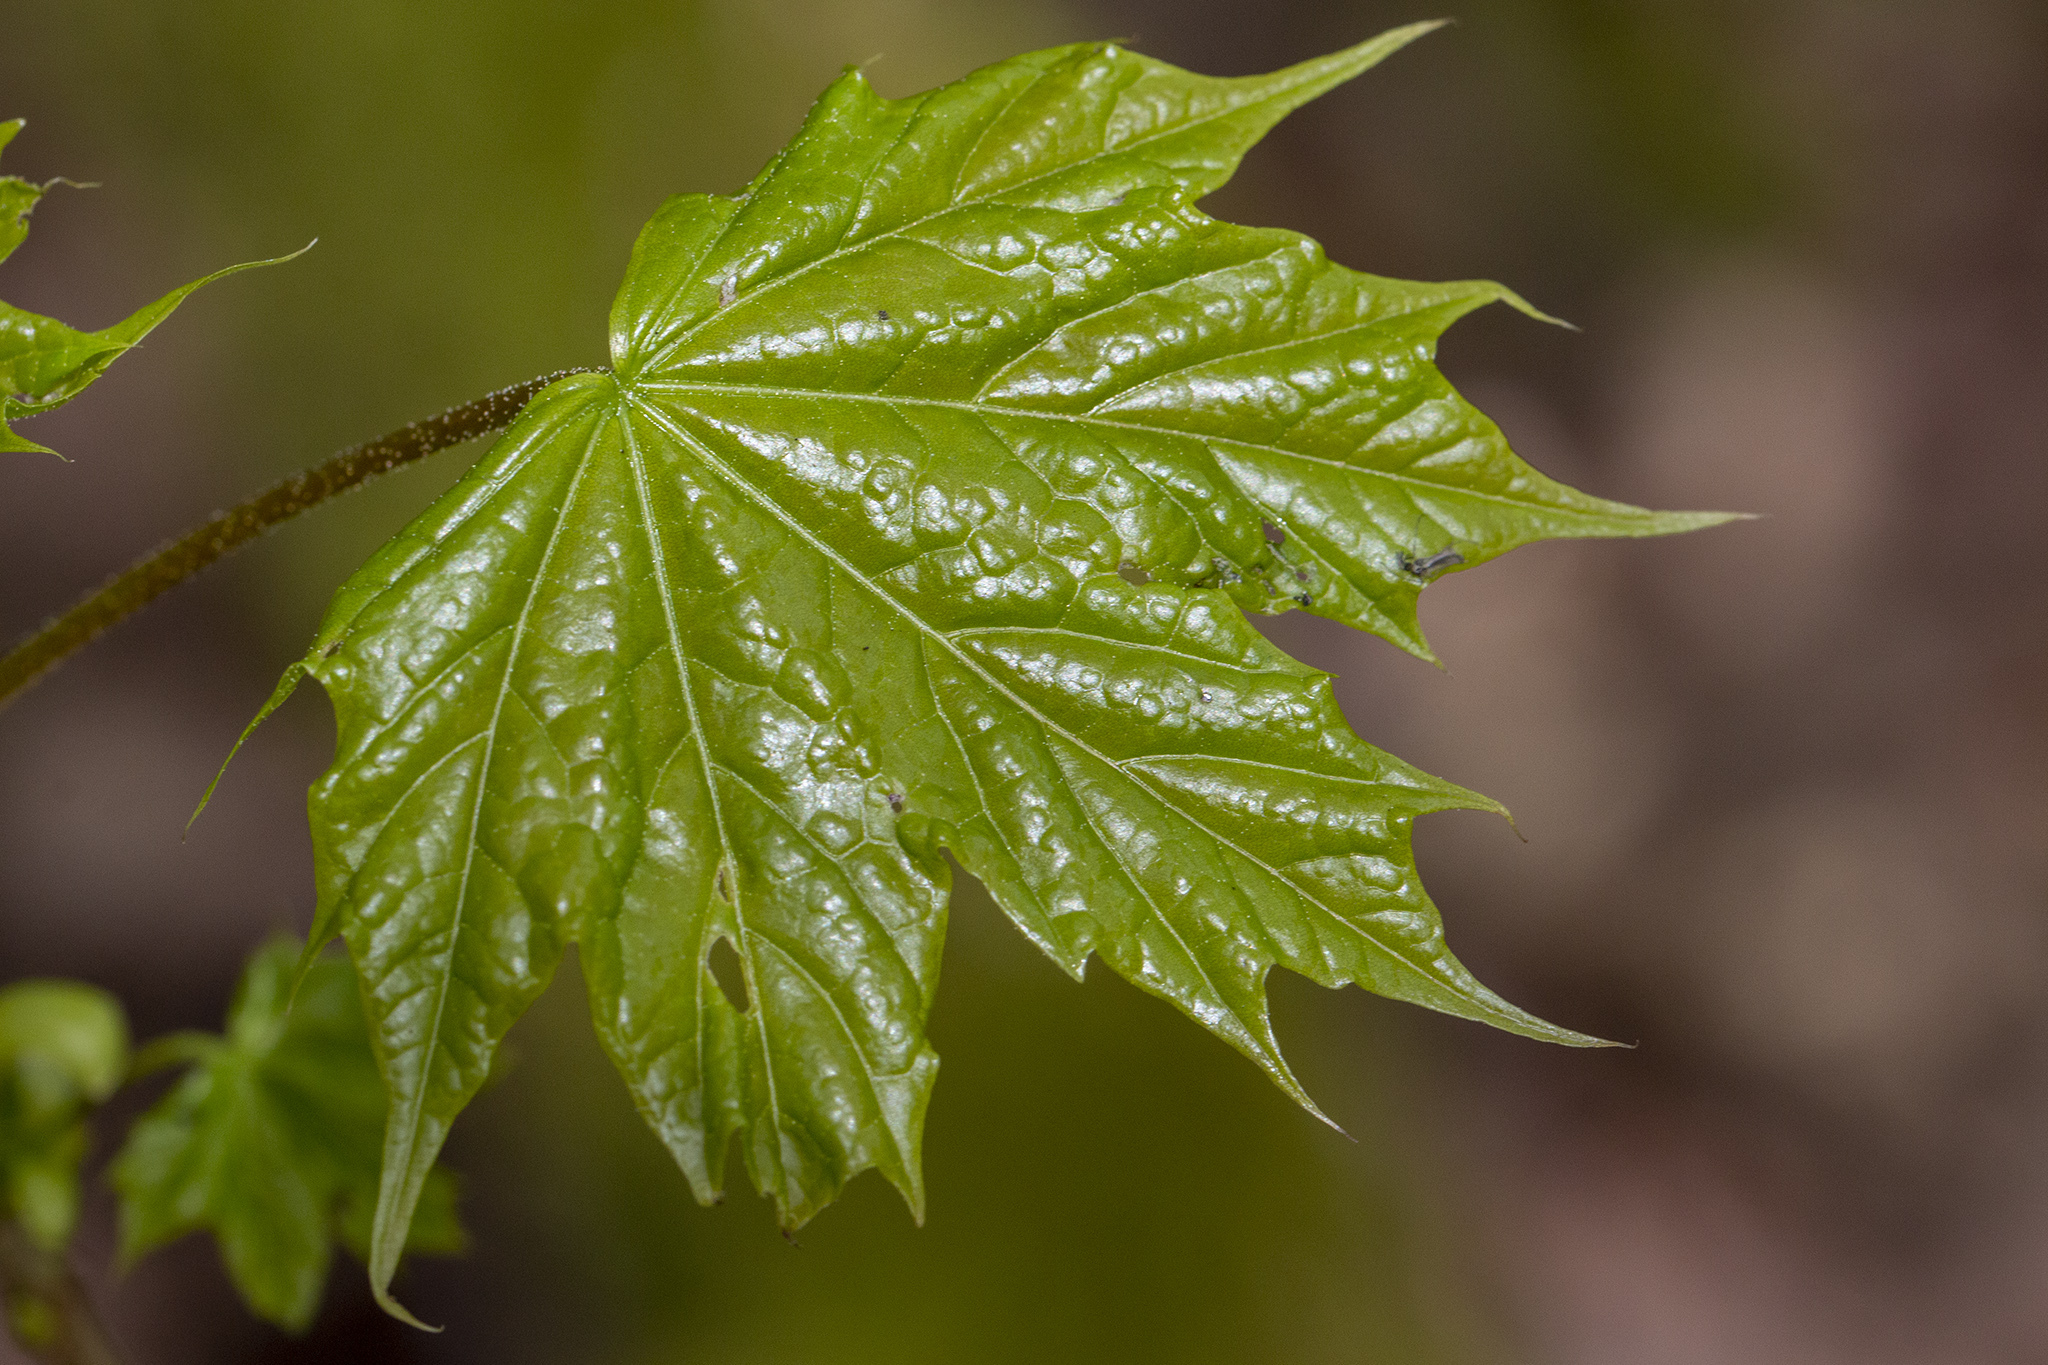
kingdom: Plantae
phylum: Tracheophyta
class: Magnoliopsida
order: Sapindales
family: Sapindaceae
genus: Acer
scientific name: Acer platanoides
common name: Norway maple
